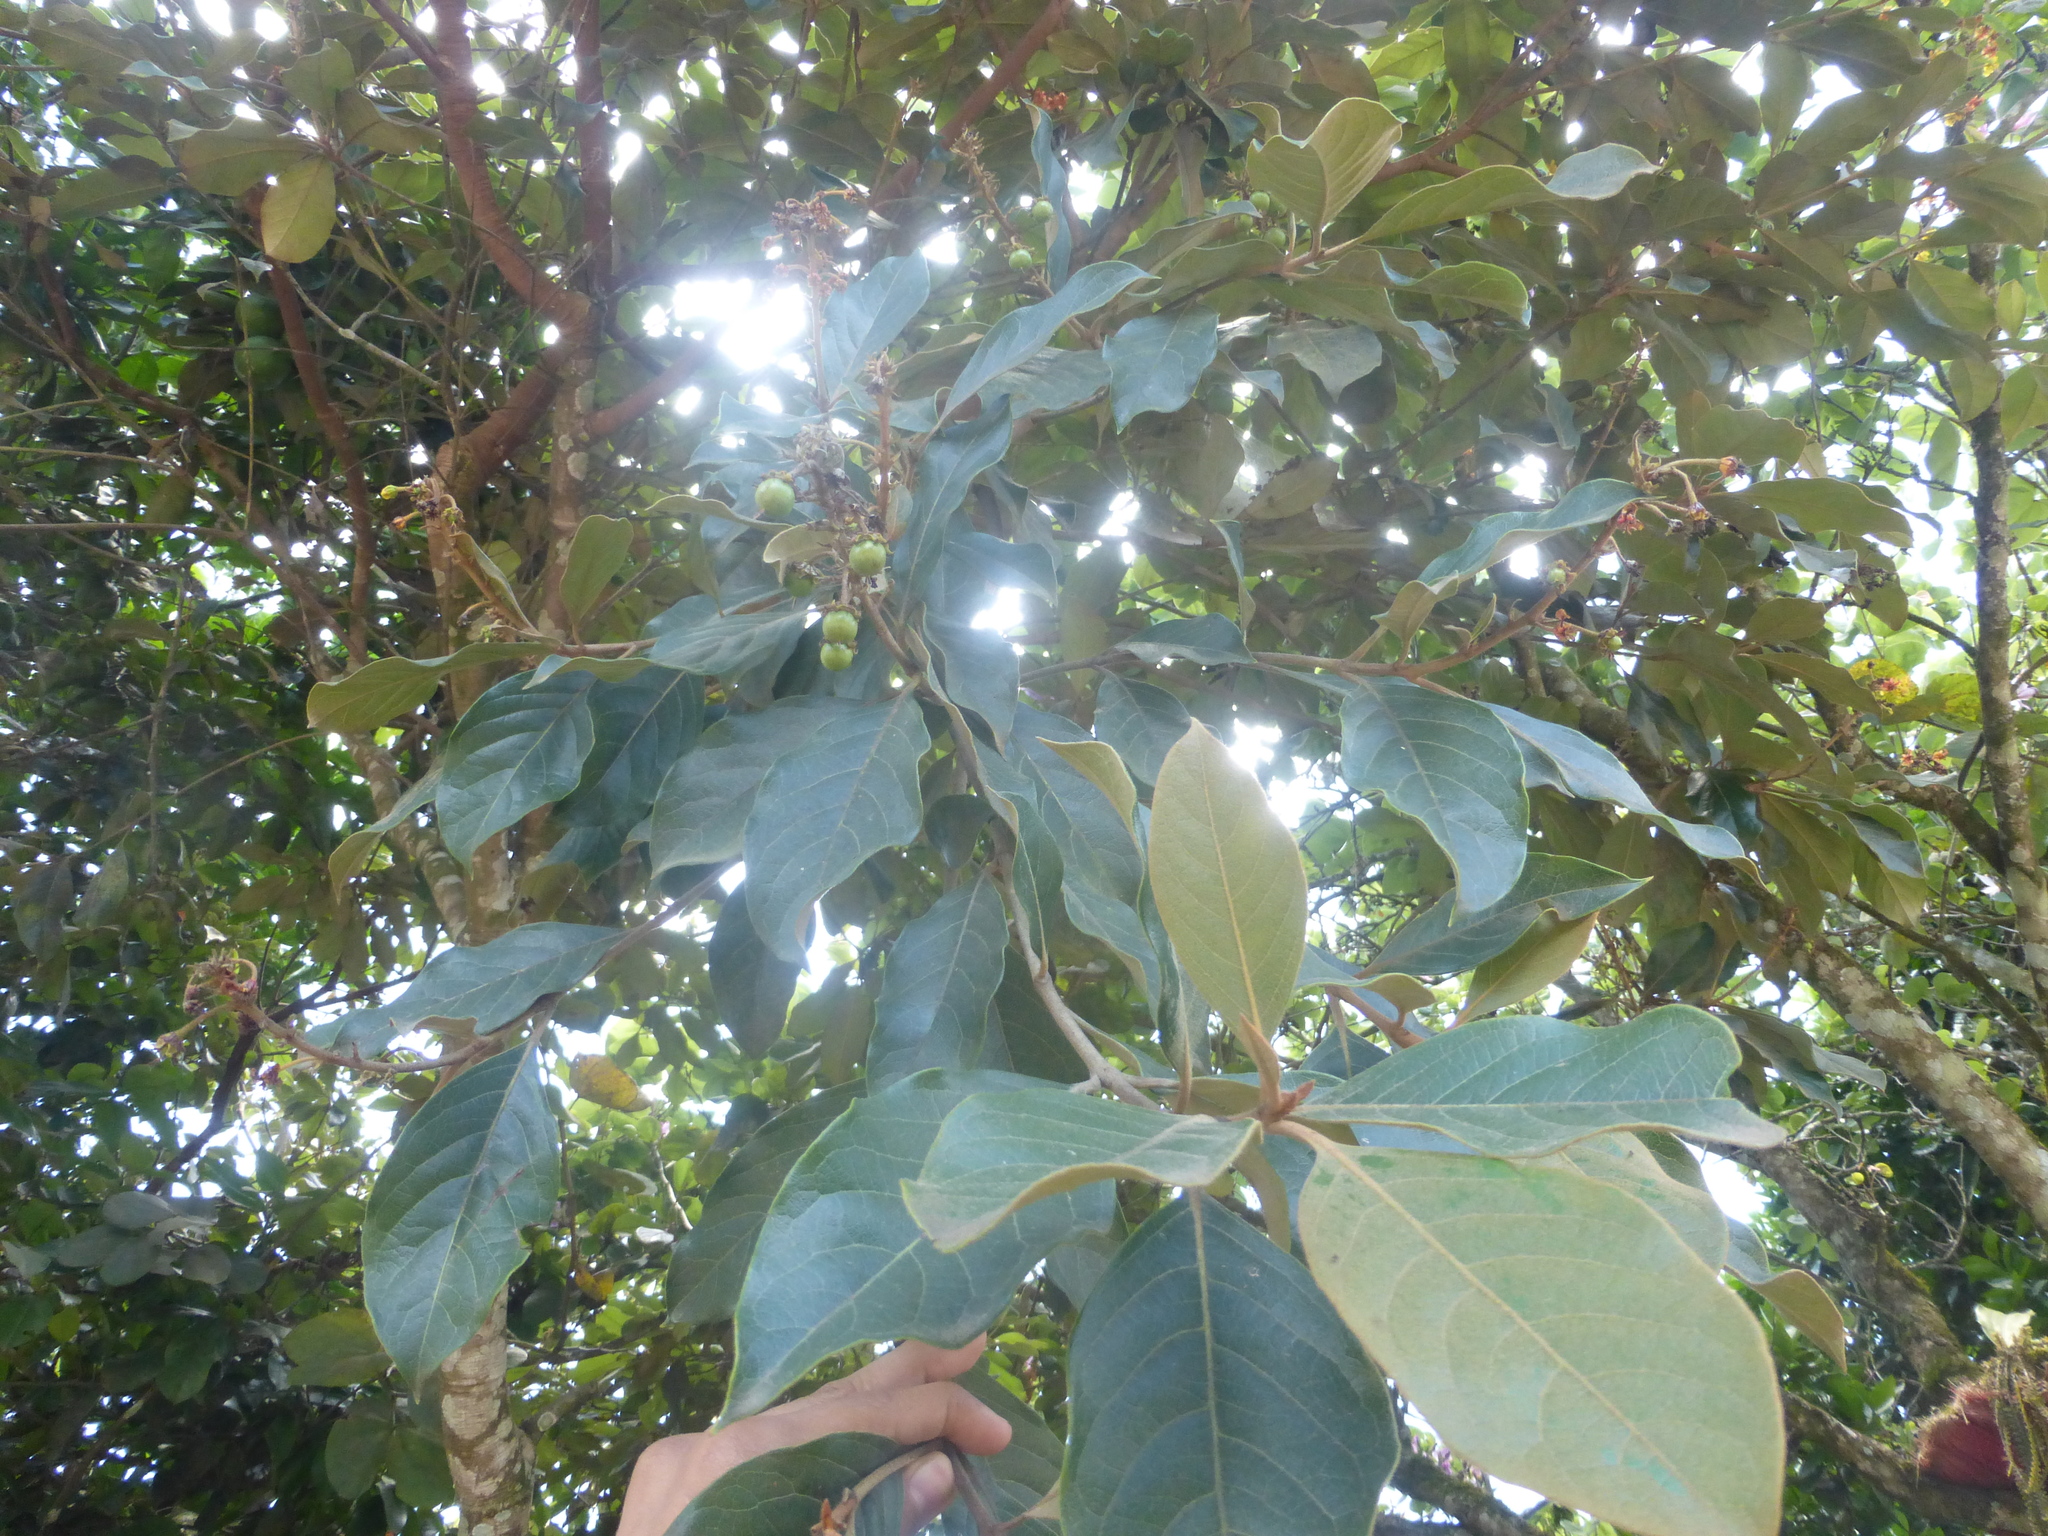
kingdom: Plantae
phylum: Tracheophyta
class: Magnoliopsida
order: Malpighiales
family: Malpighiaceae
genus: Byrsonima
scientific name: Byrsonima crassifolia
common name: Golden spoon
